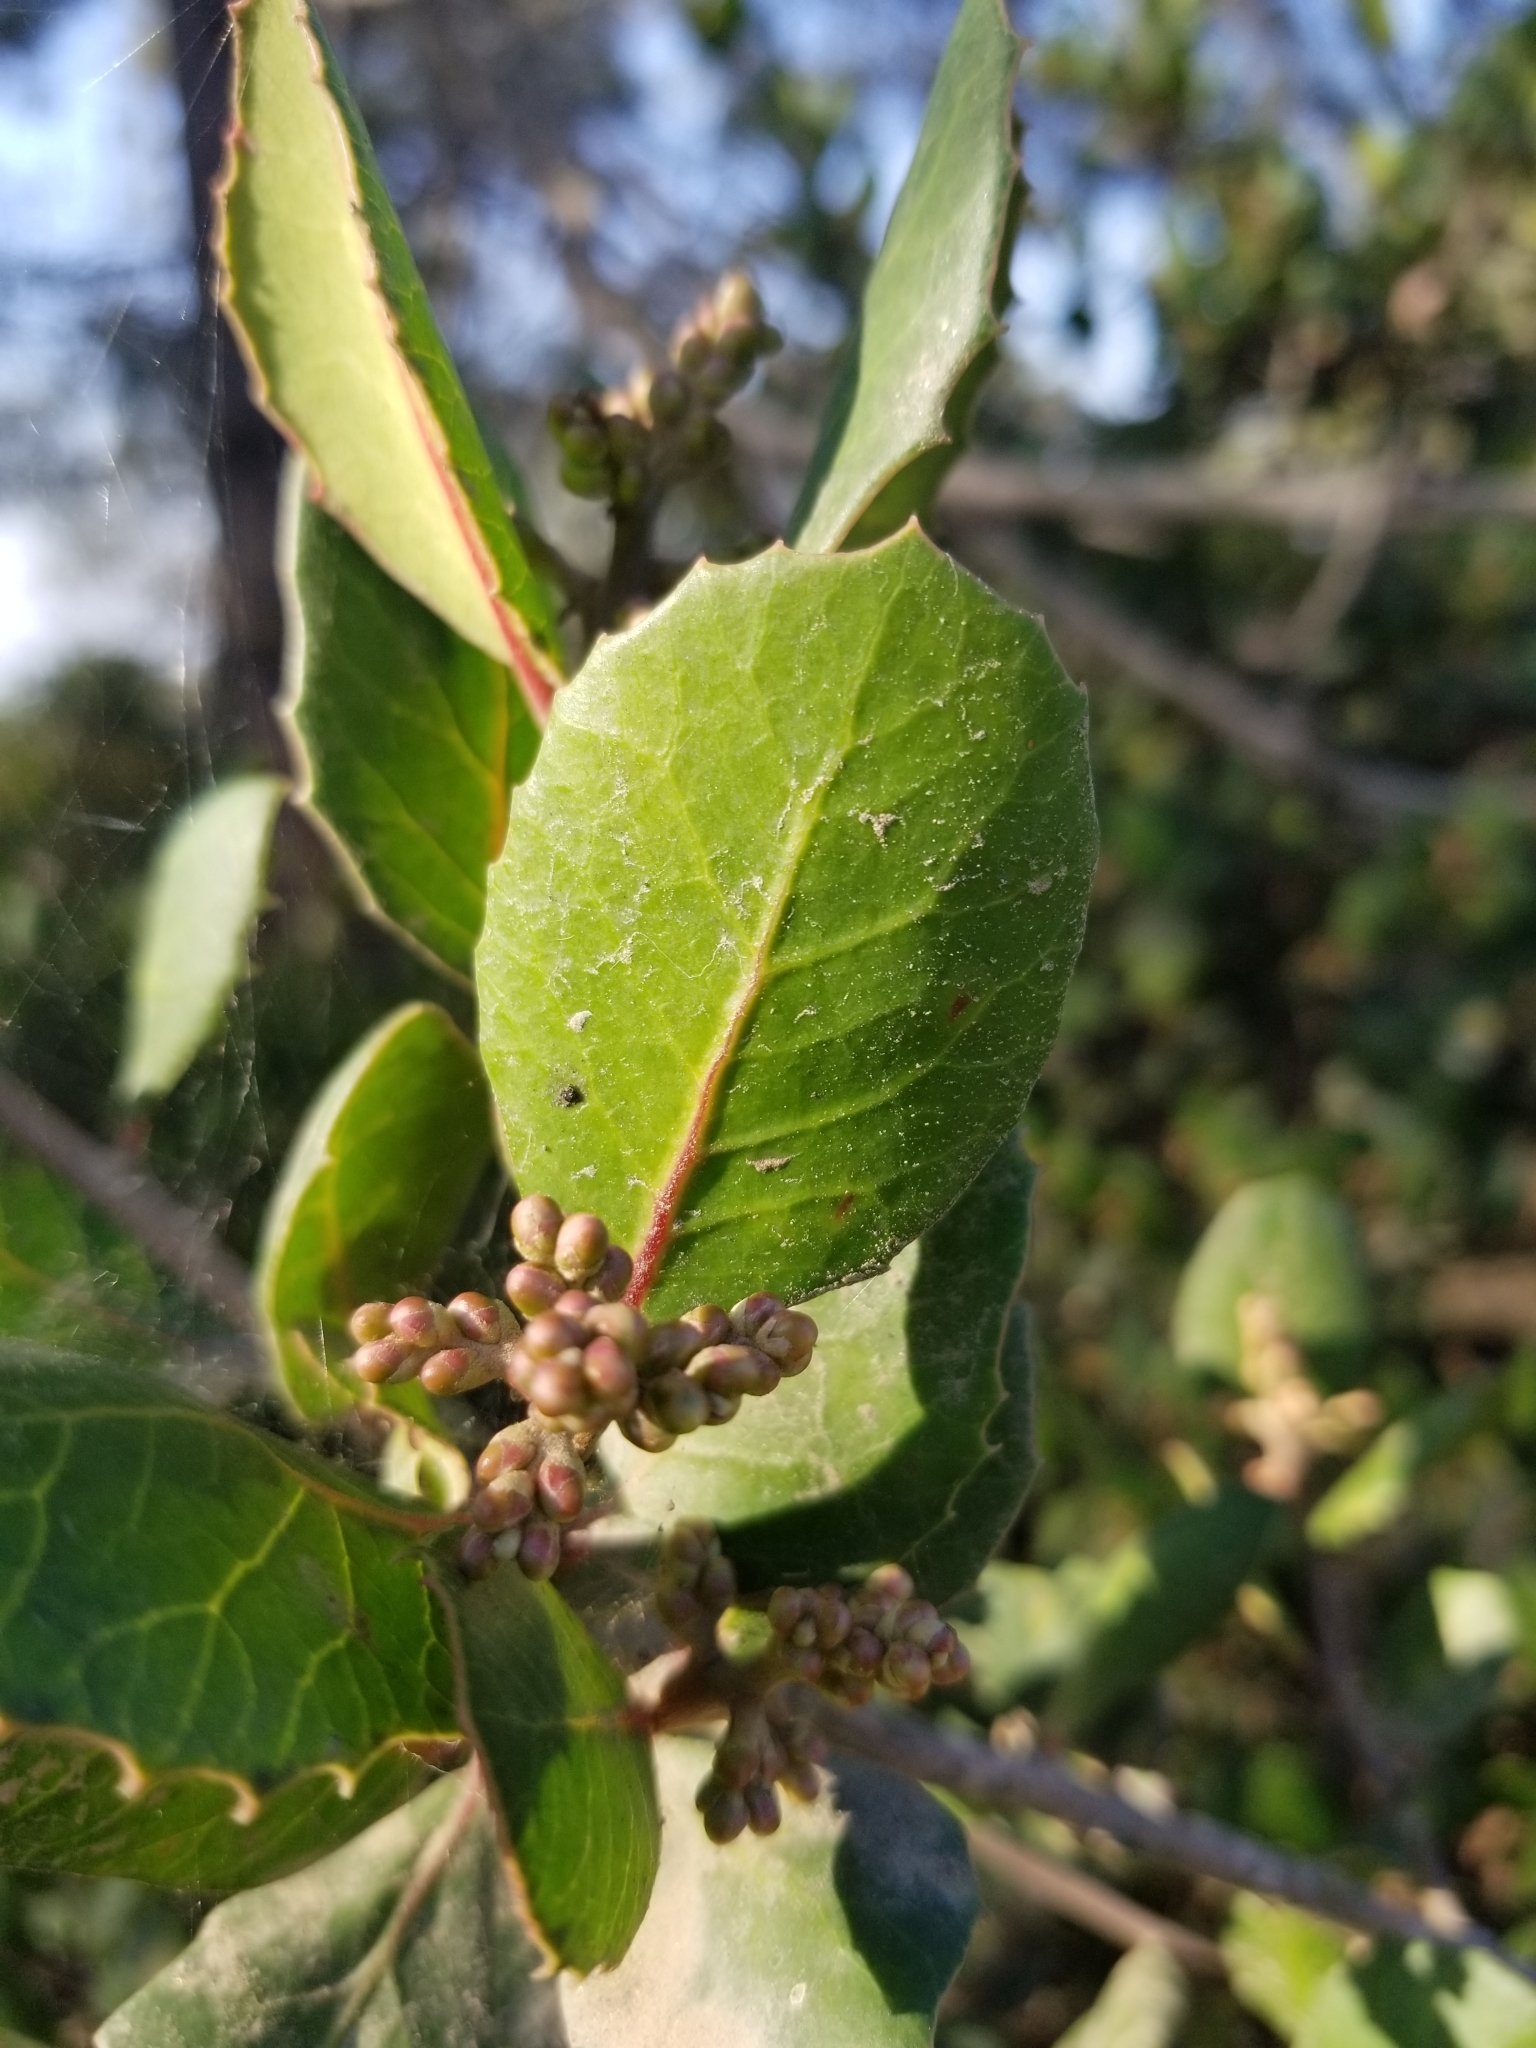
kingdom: Plantae
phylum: Tracheophyta
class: Magnoliopsida
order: Sapindales
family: Anacardiaceae
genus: Rhus
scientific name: Rhus integrifolia
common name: Lemonade sumac
